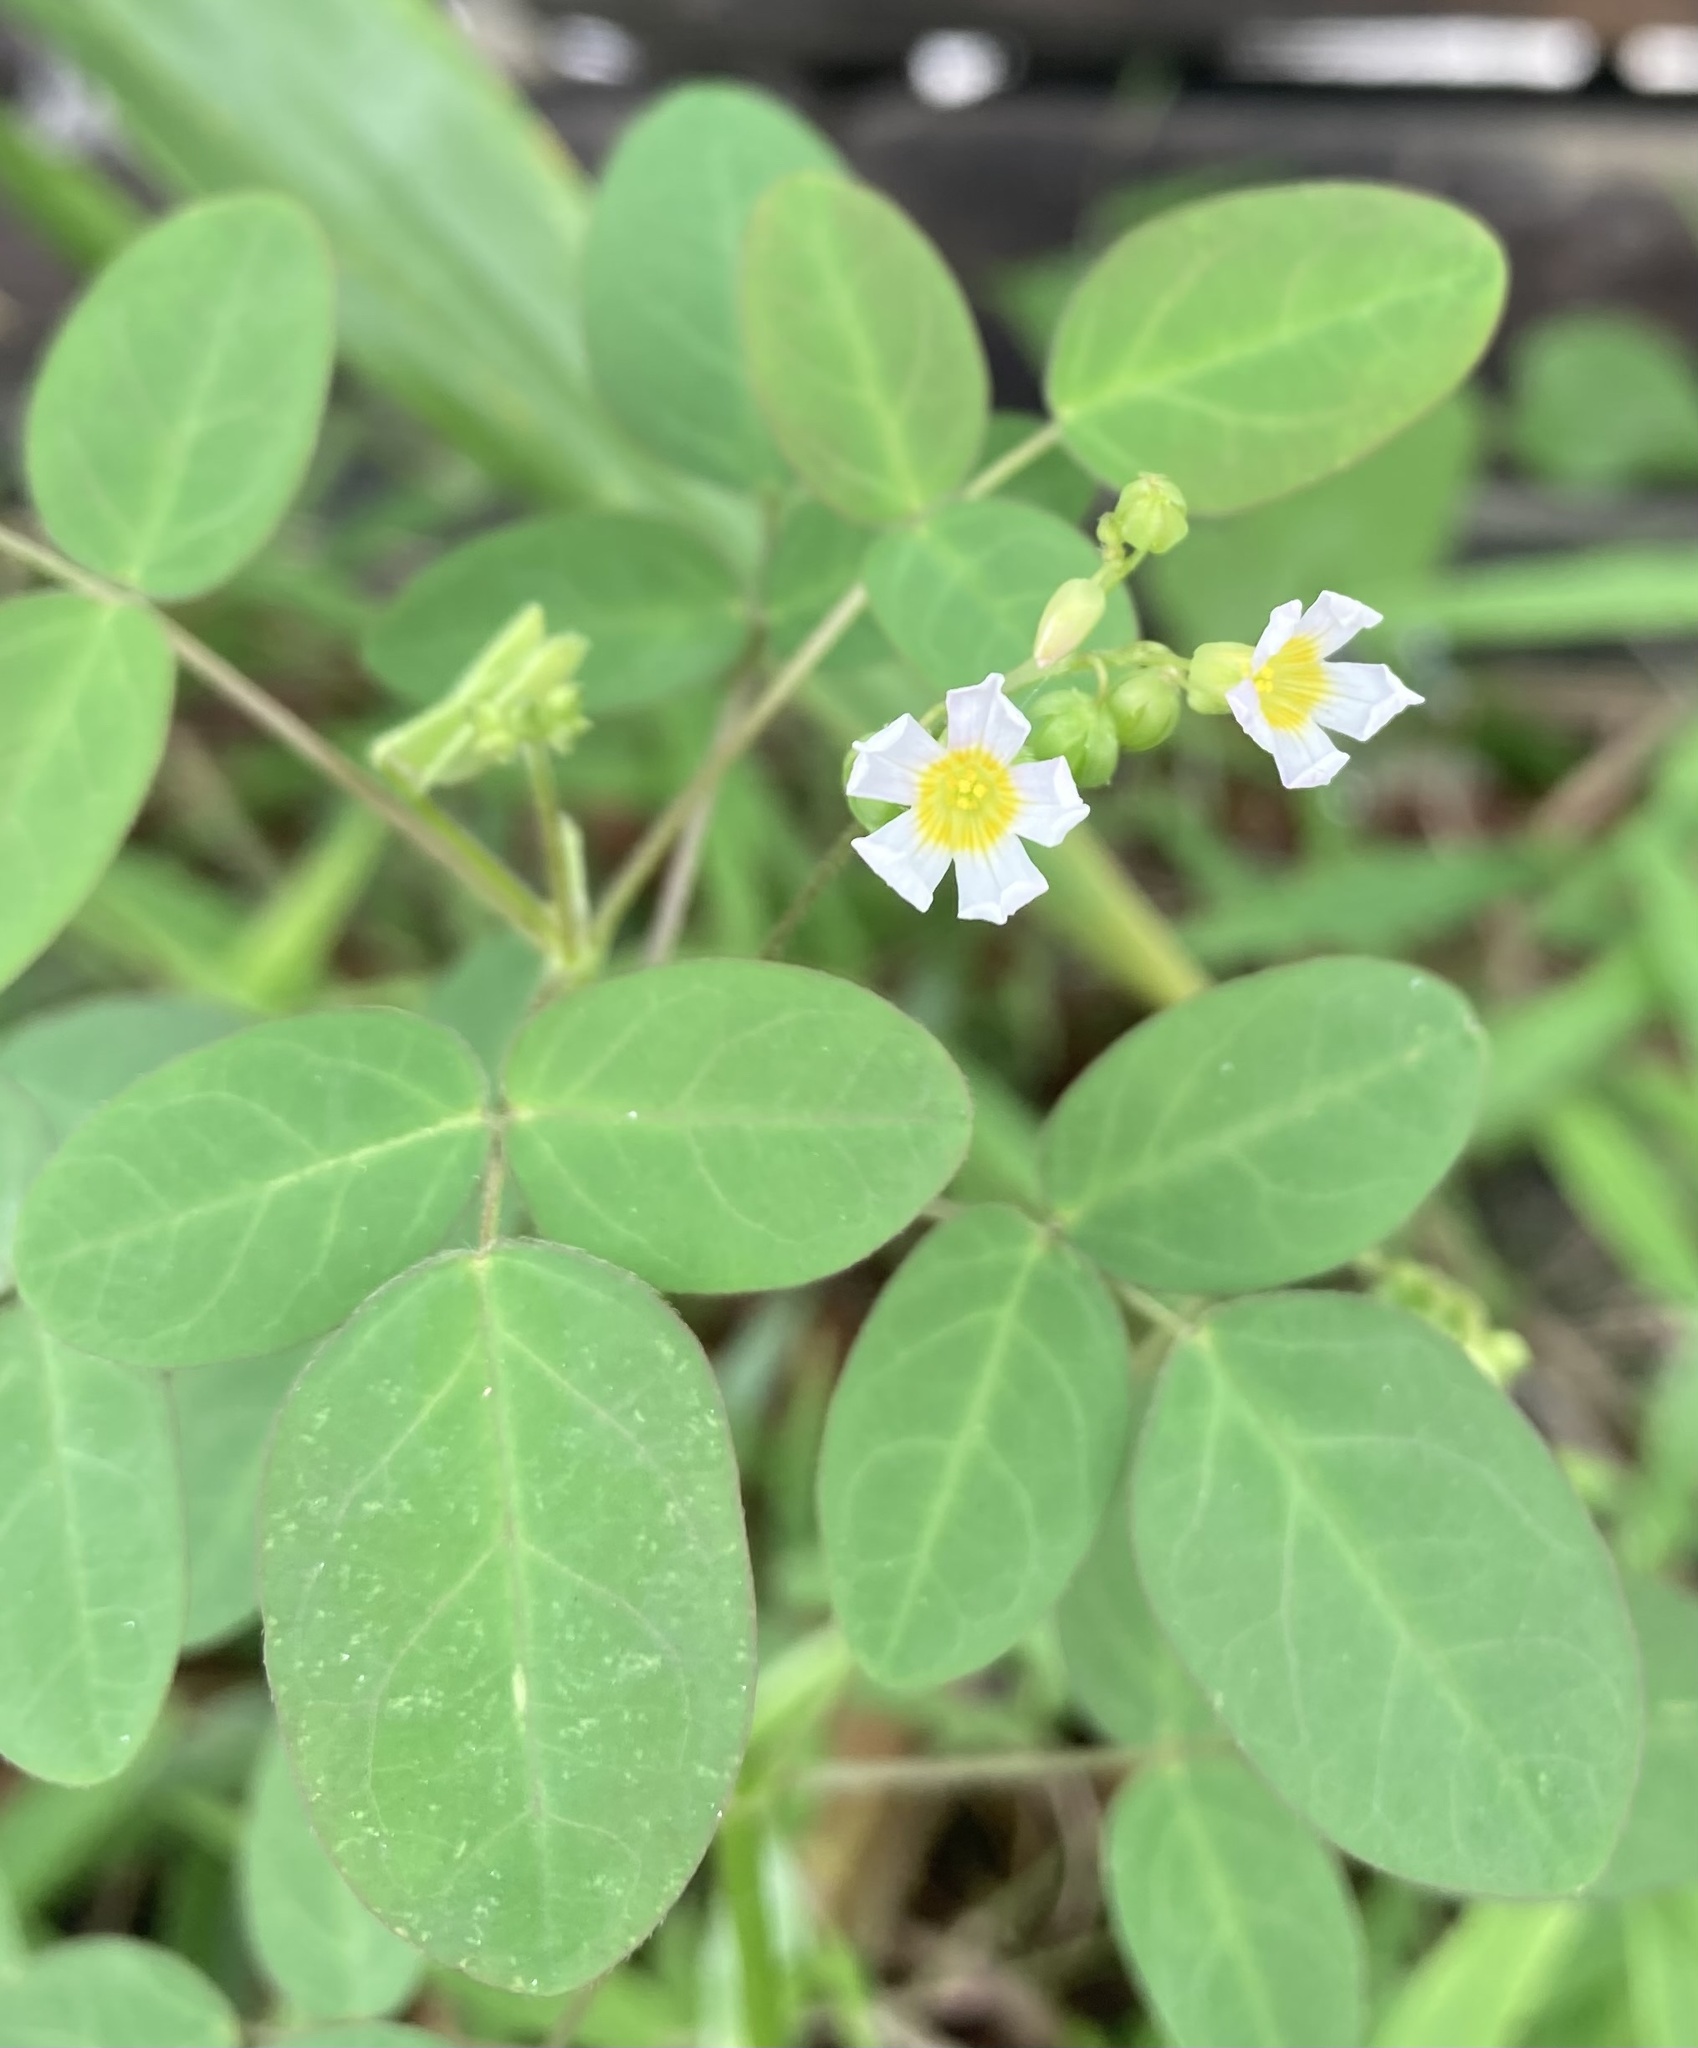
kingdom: Plantae
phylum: Tracheophyta
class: Magnoliopsida
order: Oxalidales
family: Oxalidaceae
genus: Oxalis
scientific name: Oxalis barrelieri
